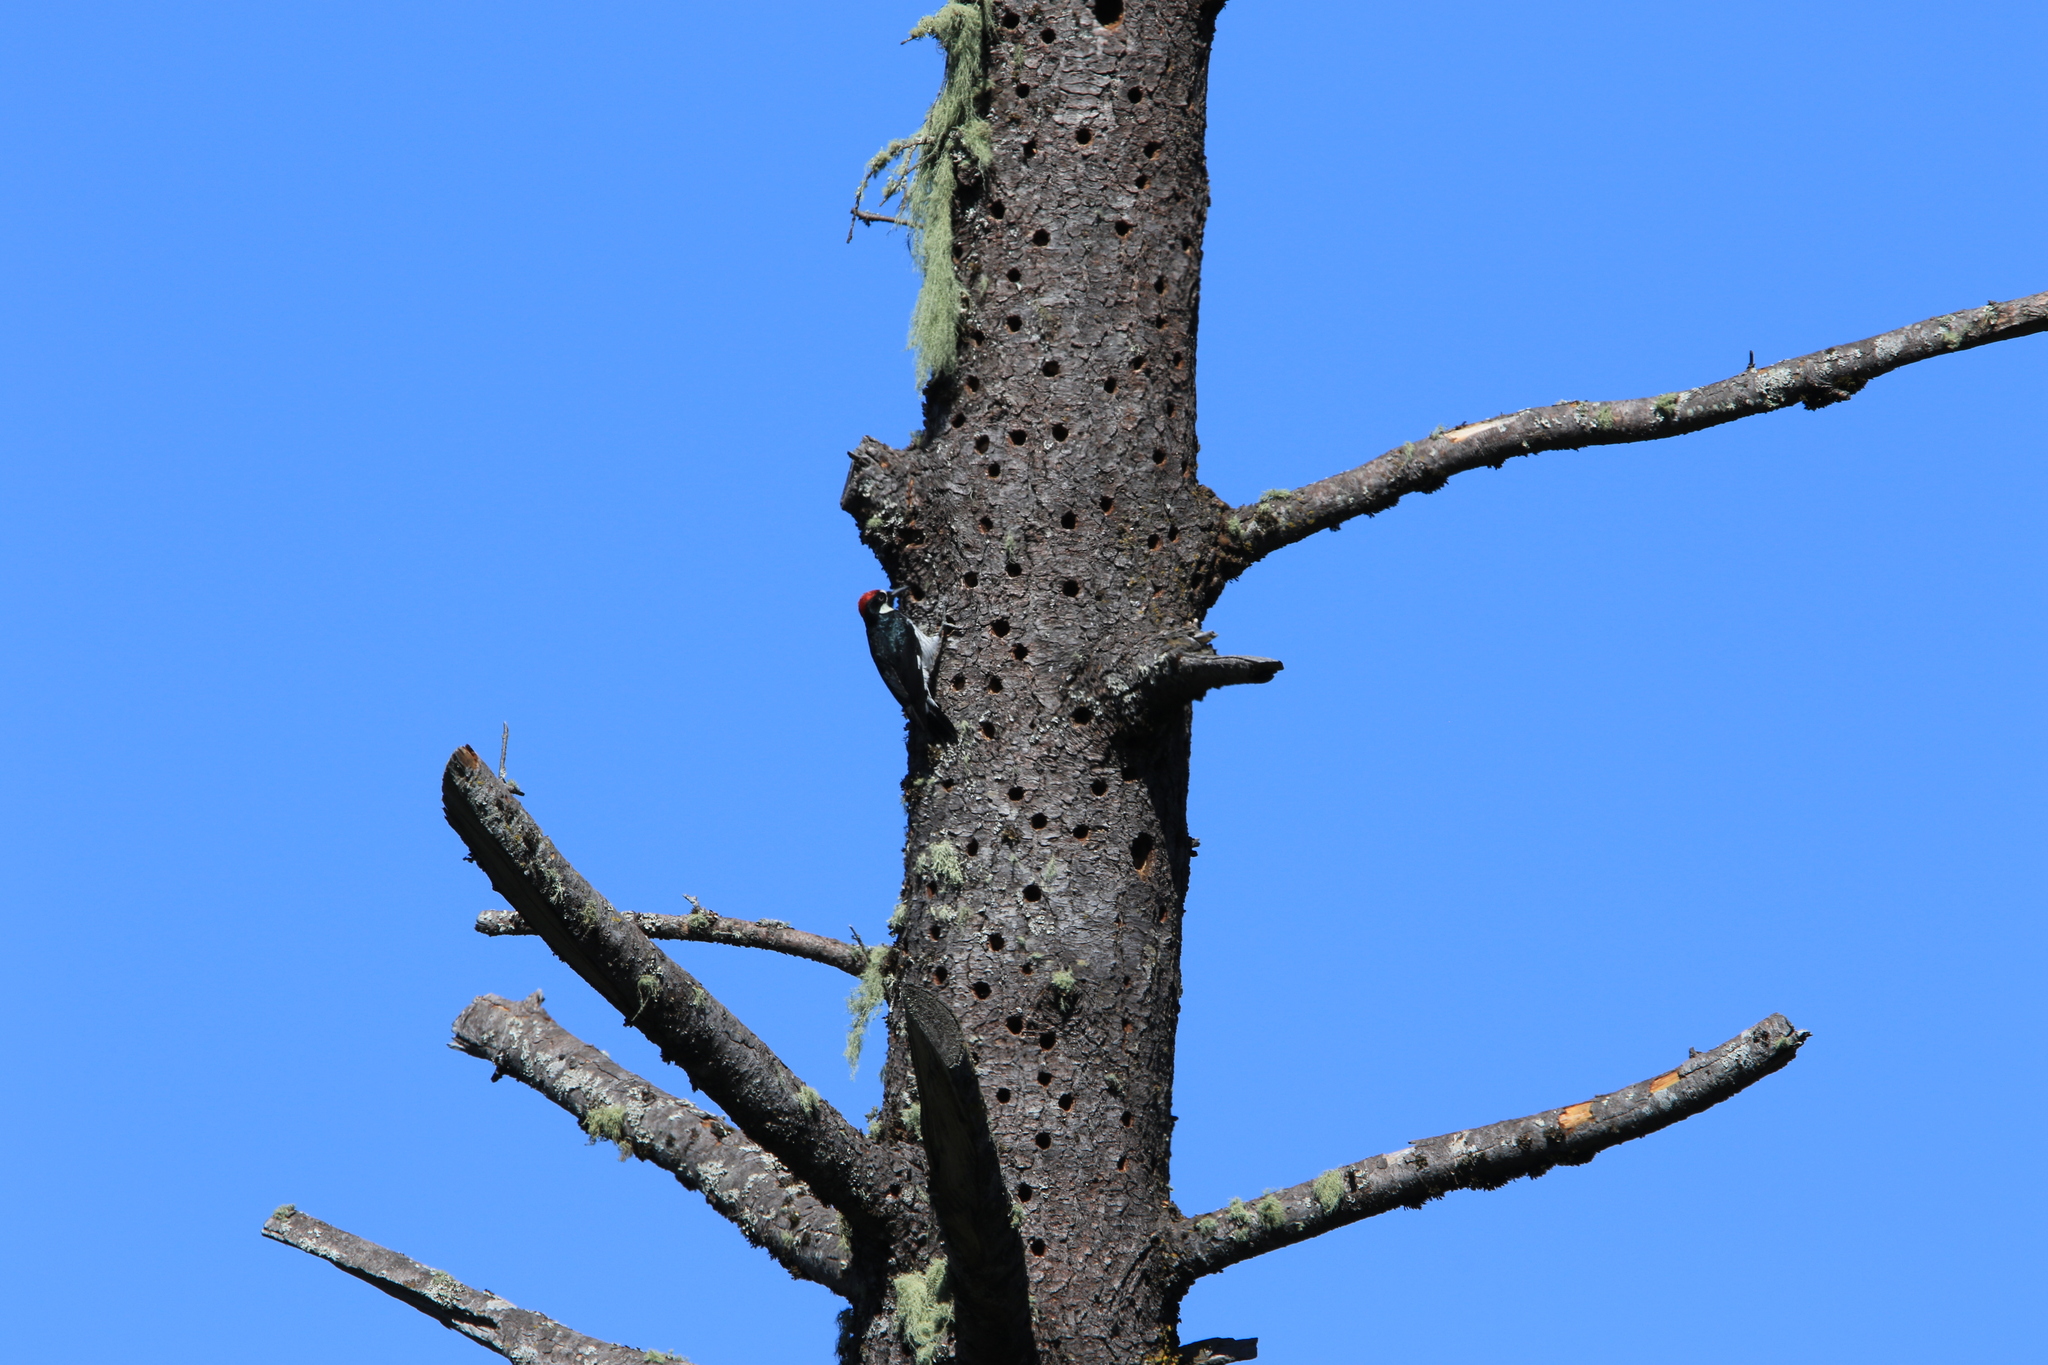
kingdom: Animalia
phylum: Chordata
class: Aves
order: Piciformes
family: Picidae
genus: Melanerpes
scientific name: Melanerpes formicivorus
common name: Acorn woodpecker
